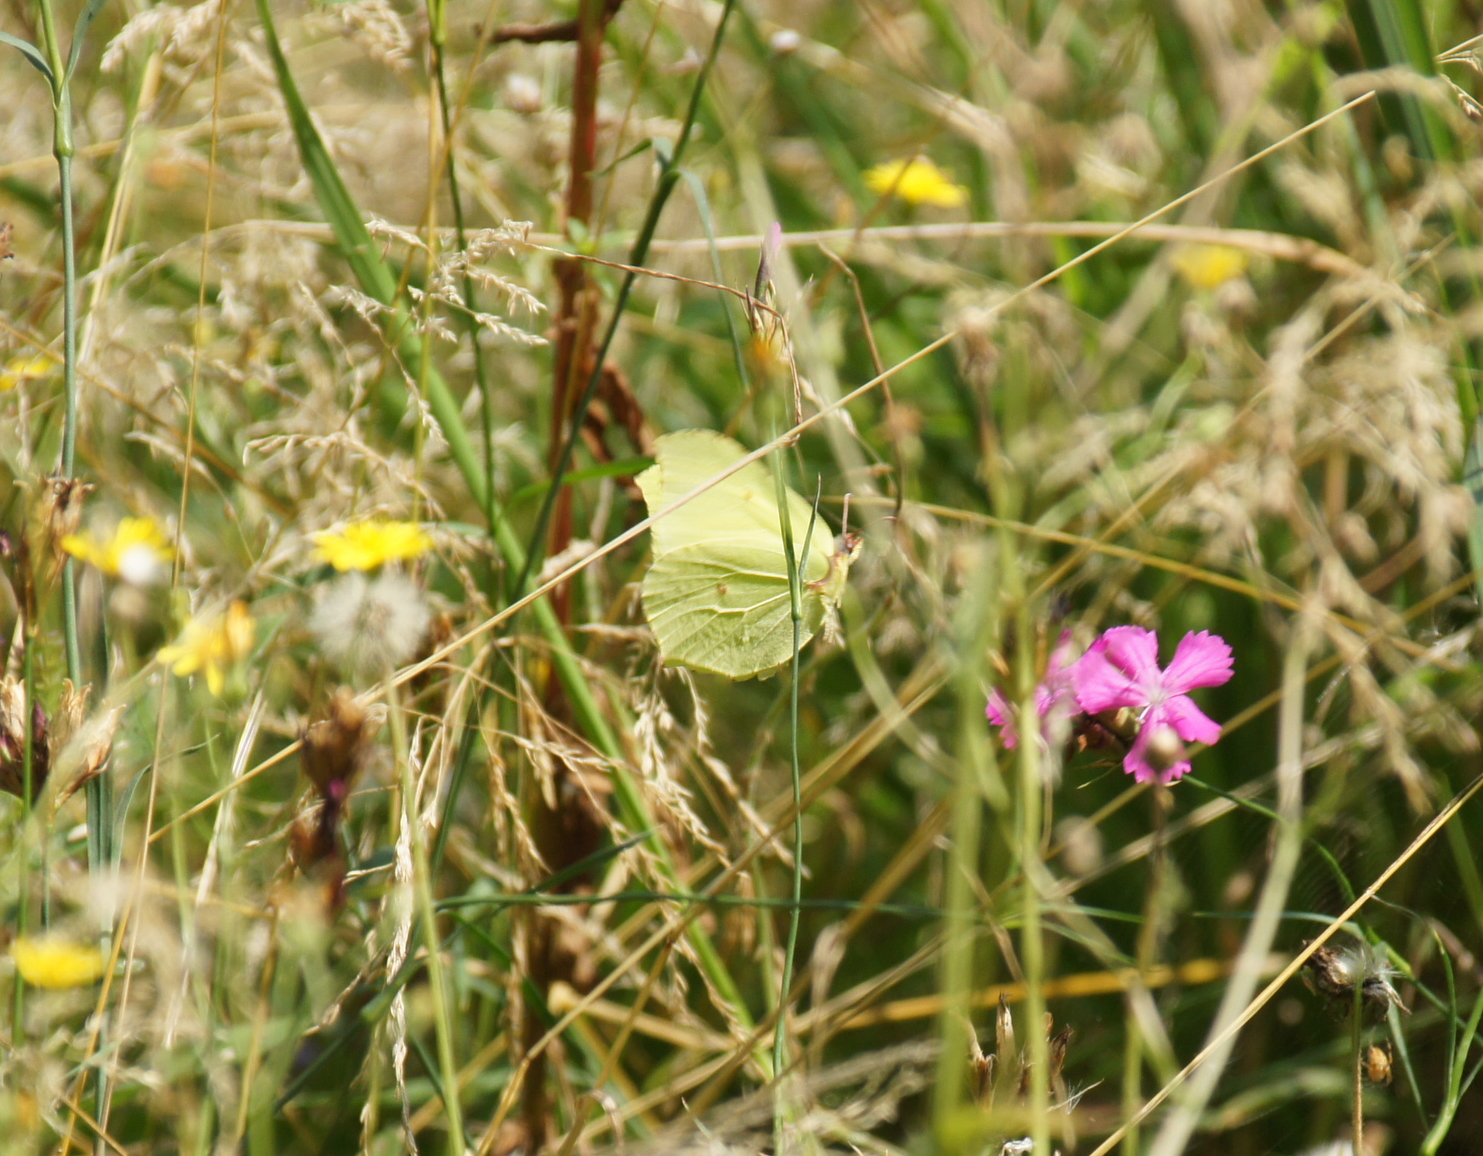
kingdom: Animalia
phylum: Arthropoda
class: Insecta
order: Lepidoptera
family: Pieridae
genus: Gonepteryx
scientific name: Gonepteryx rhamni
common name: Brimstone
